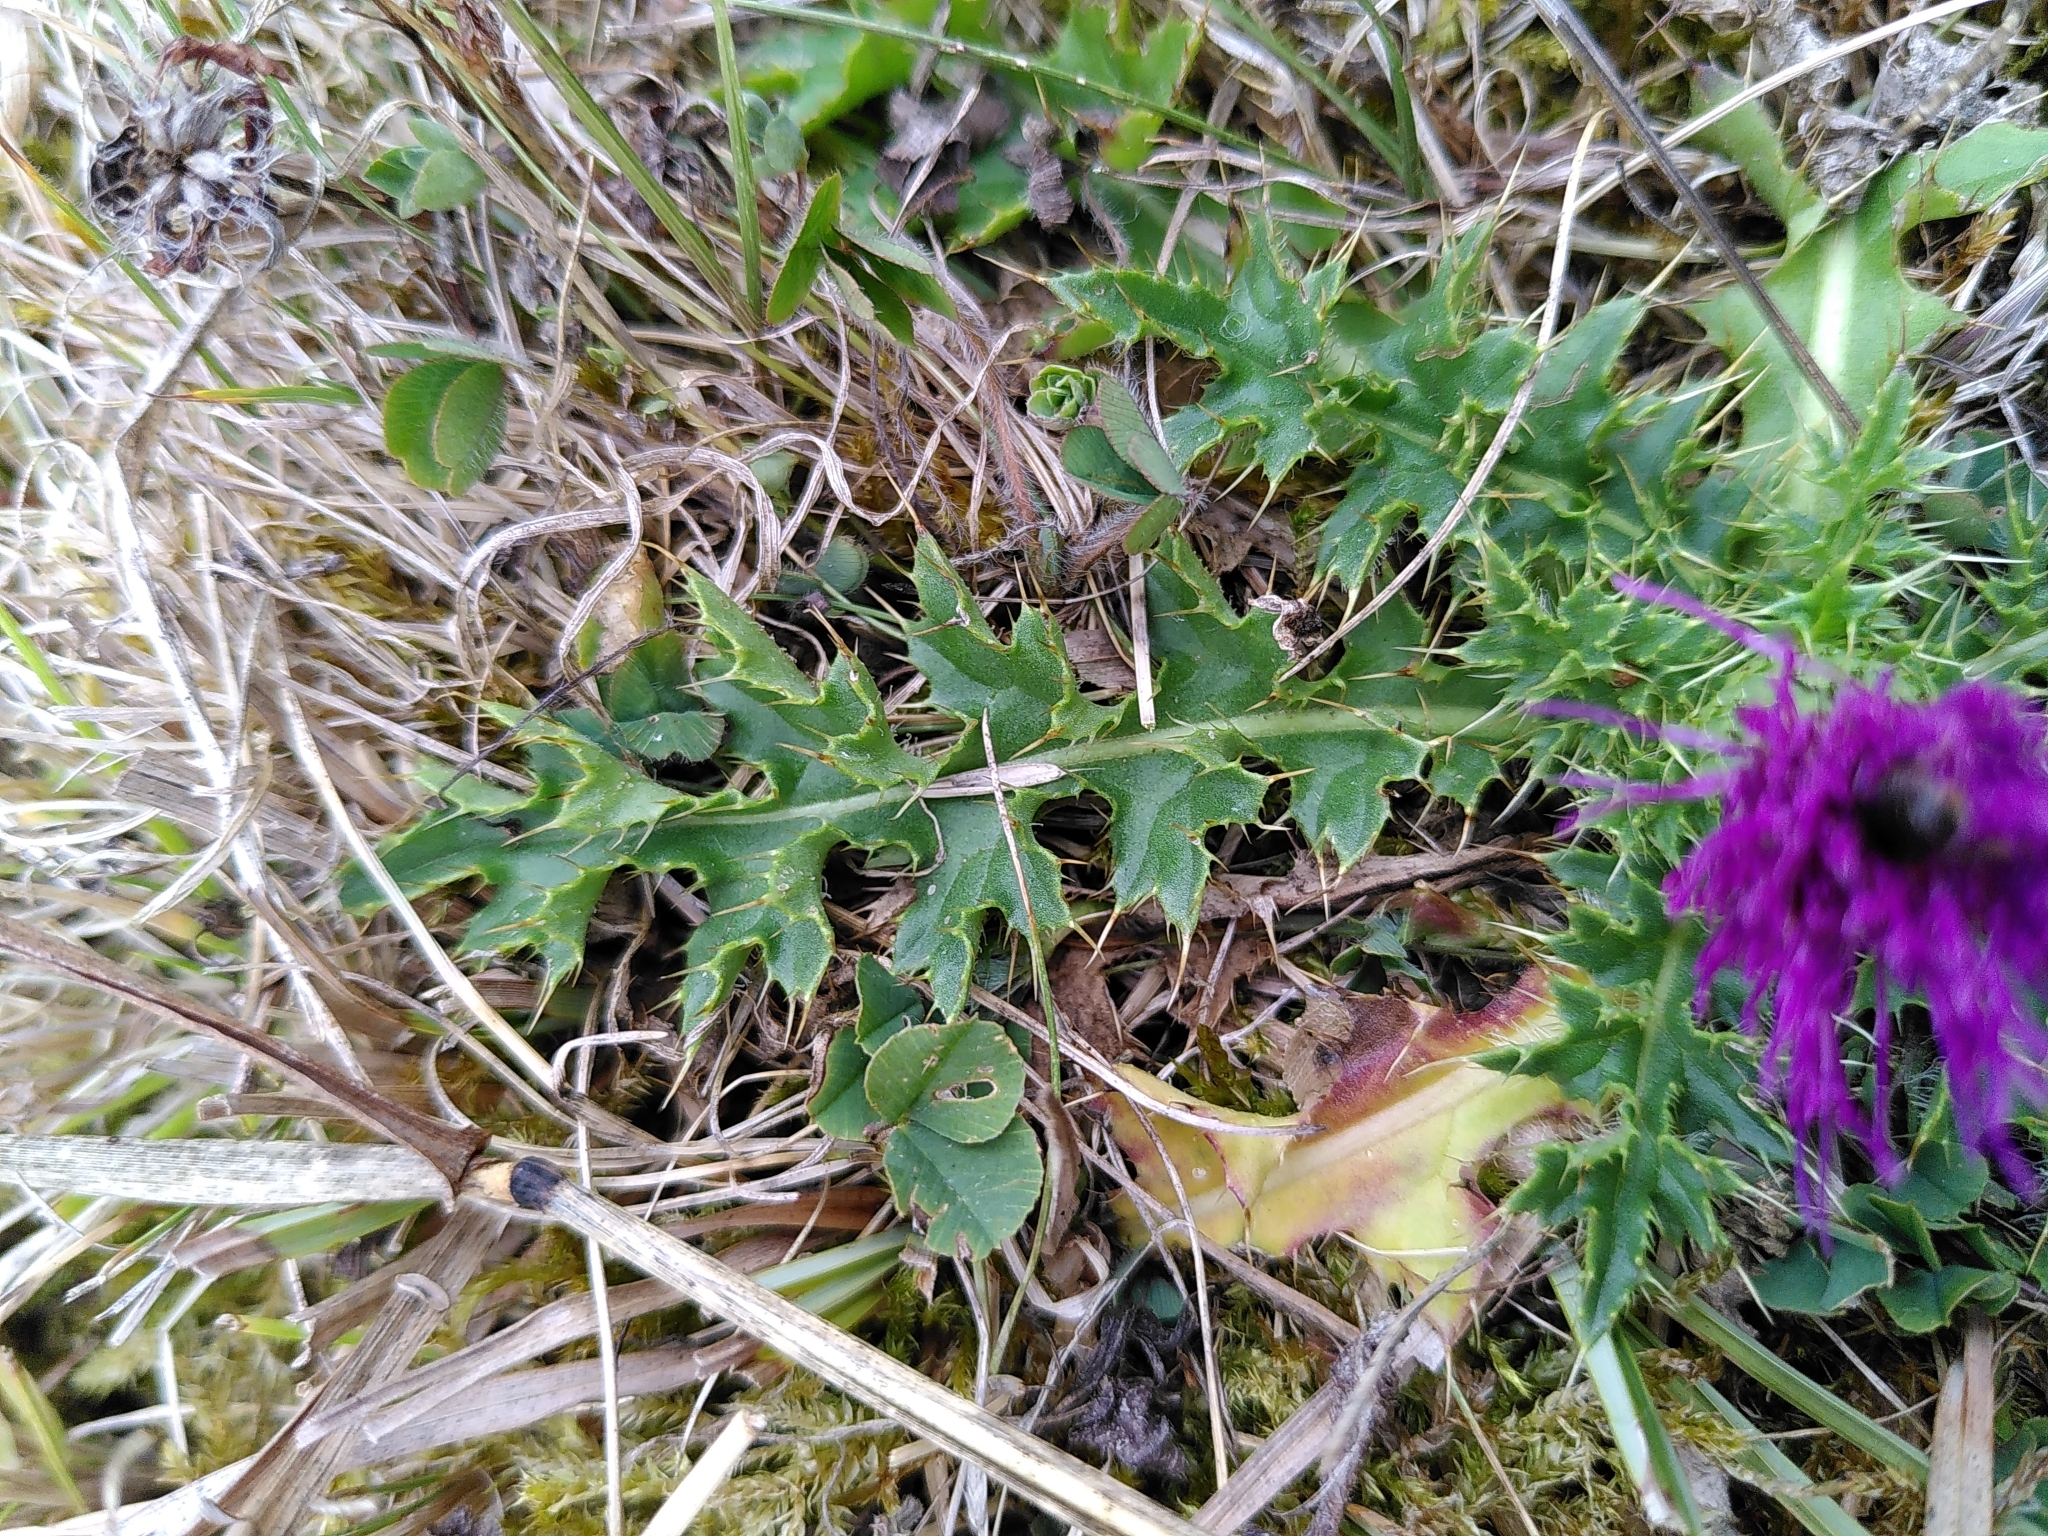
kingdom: Plantae
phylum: Tracheophyta
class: Magnoliopsida
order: Asterales
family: Asteraceae
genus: Cirsium
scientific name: Cirsium acaulon
